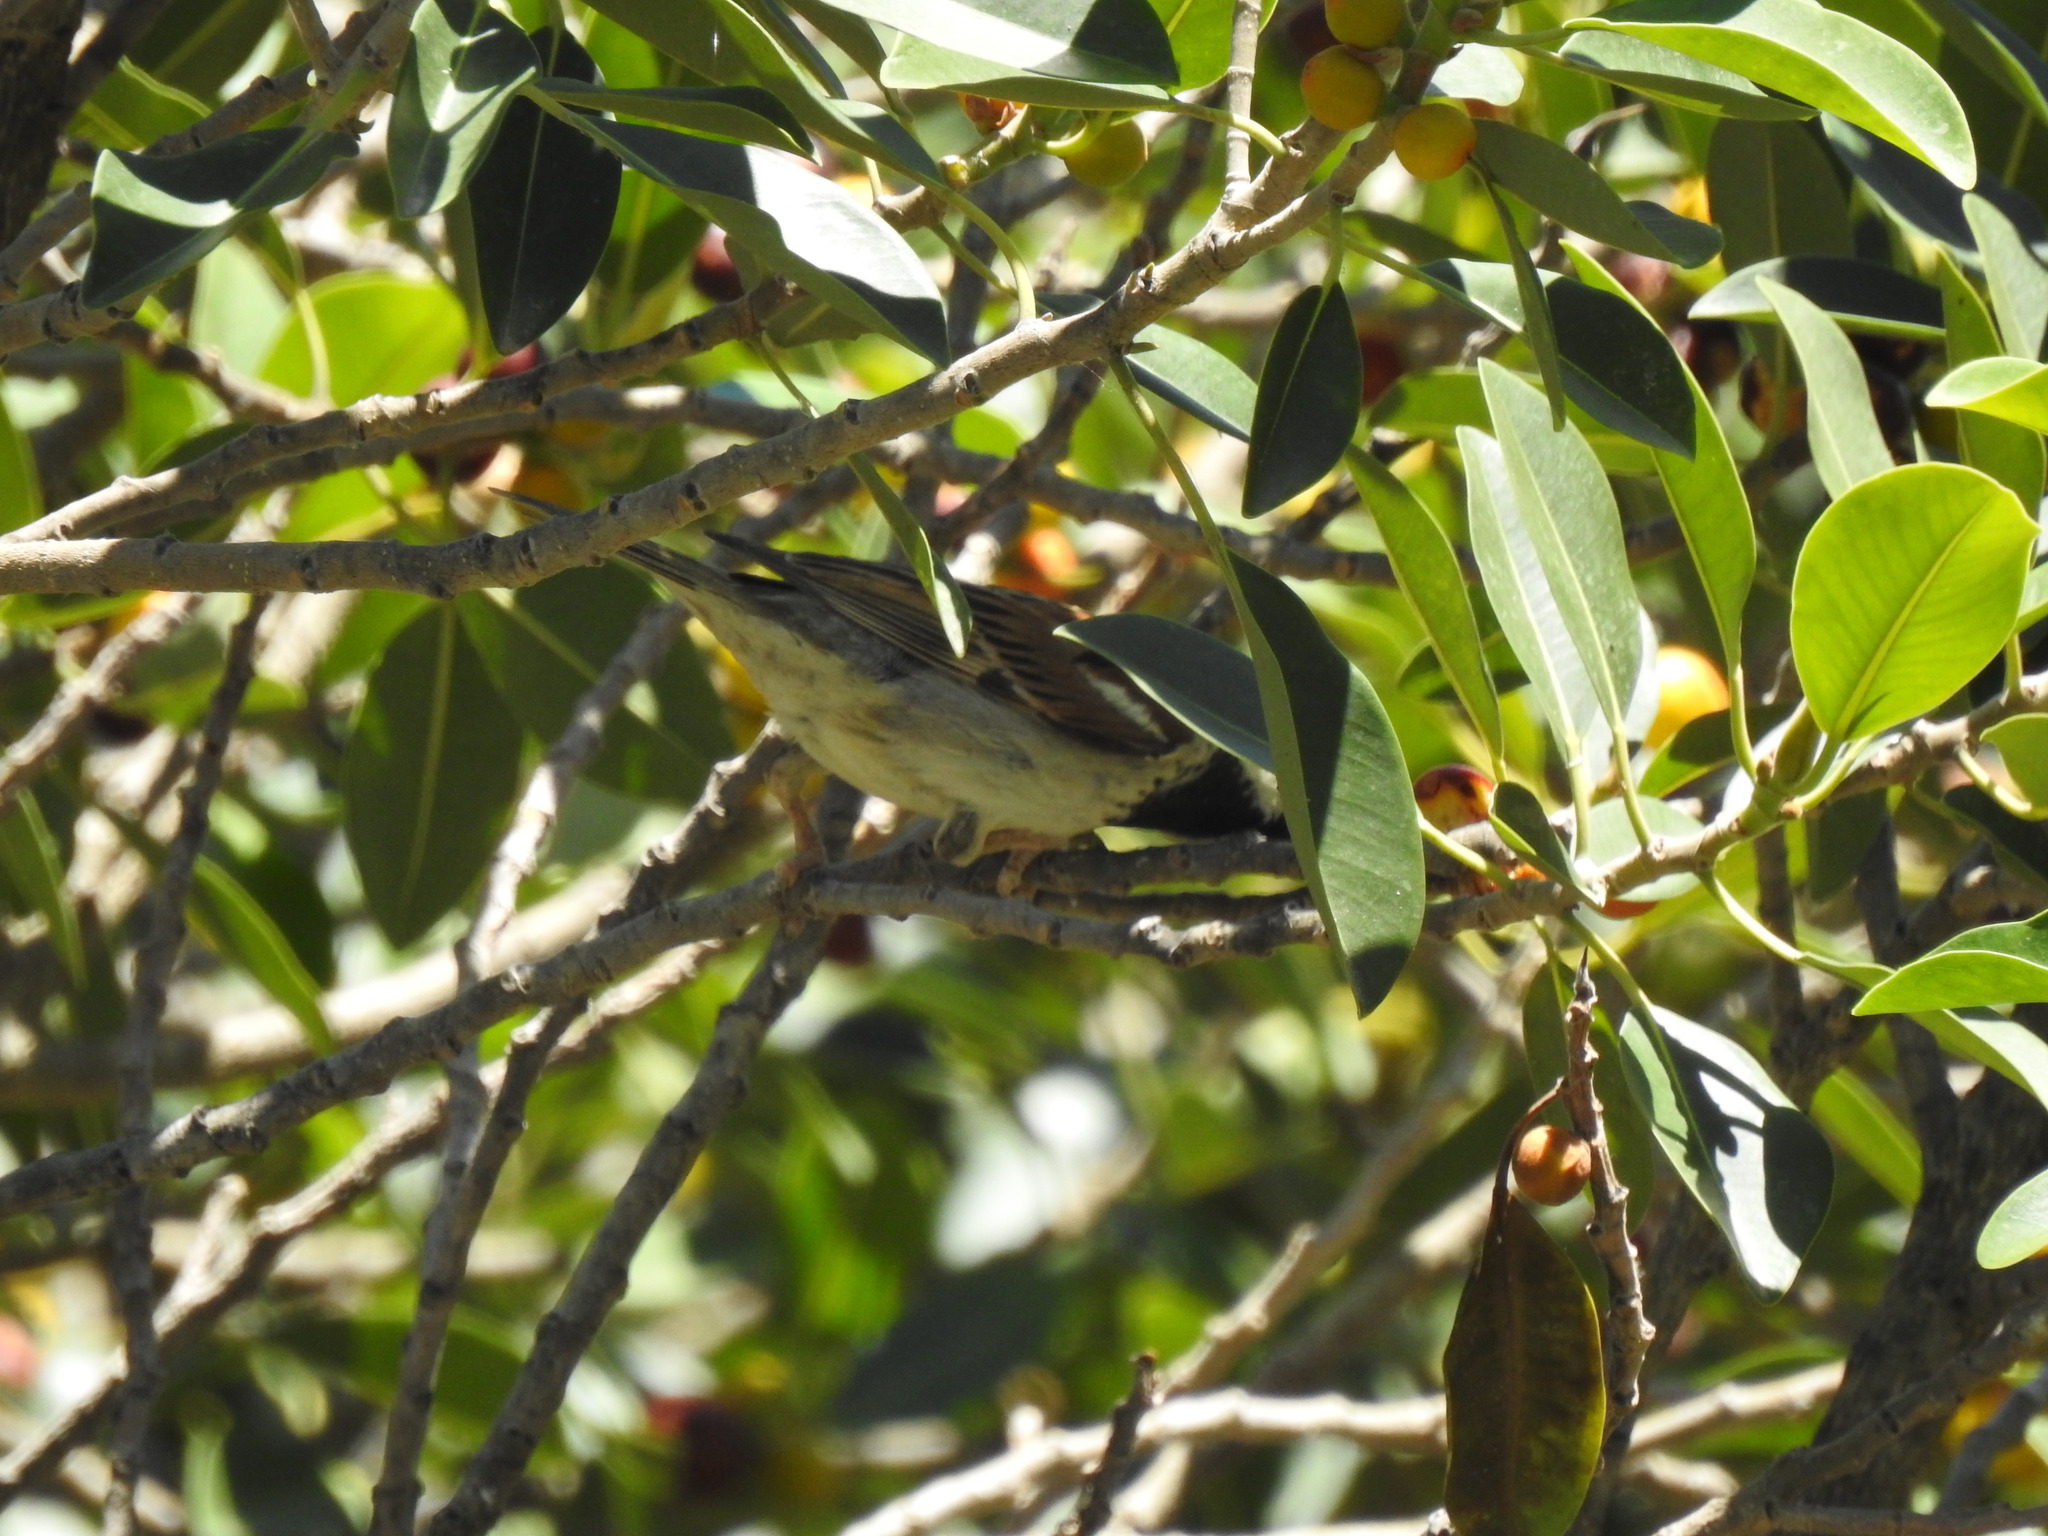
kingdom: Animalia
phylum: Chordata
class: Aves
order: Passeriformes
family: Passeridae
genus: Passer
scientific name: Passer domesticus
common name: House sparrow
